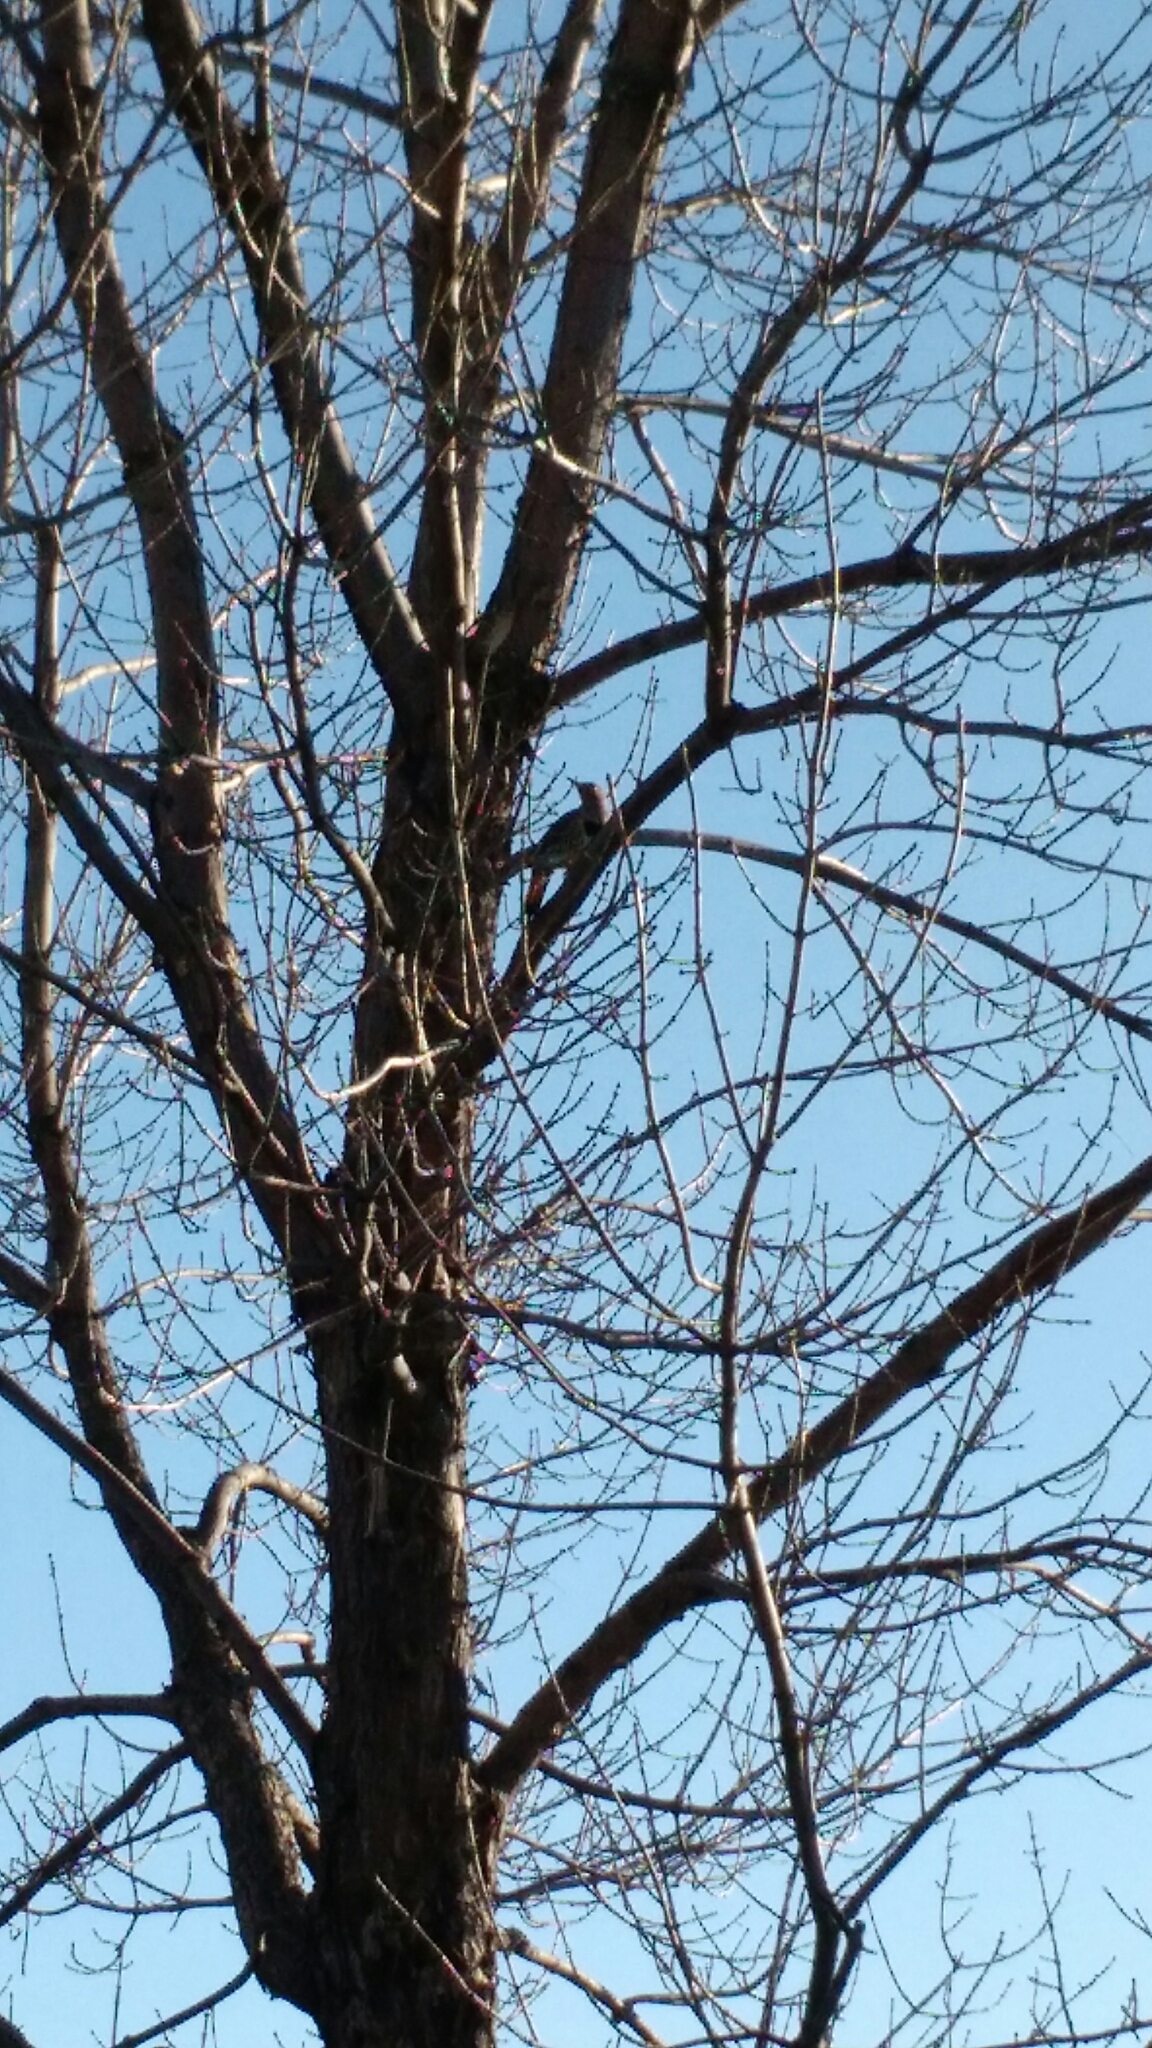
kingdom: Animalia
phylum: Chordata
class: Aves
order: Piciformes
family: Picidae
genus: Colaptes
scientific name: Colaptes auratus
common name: Northern flicker
